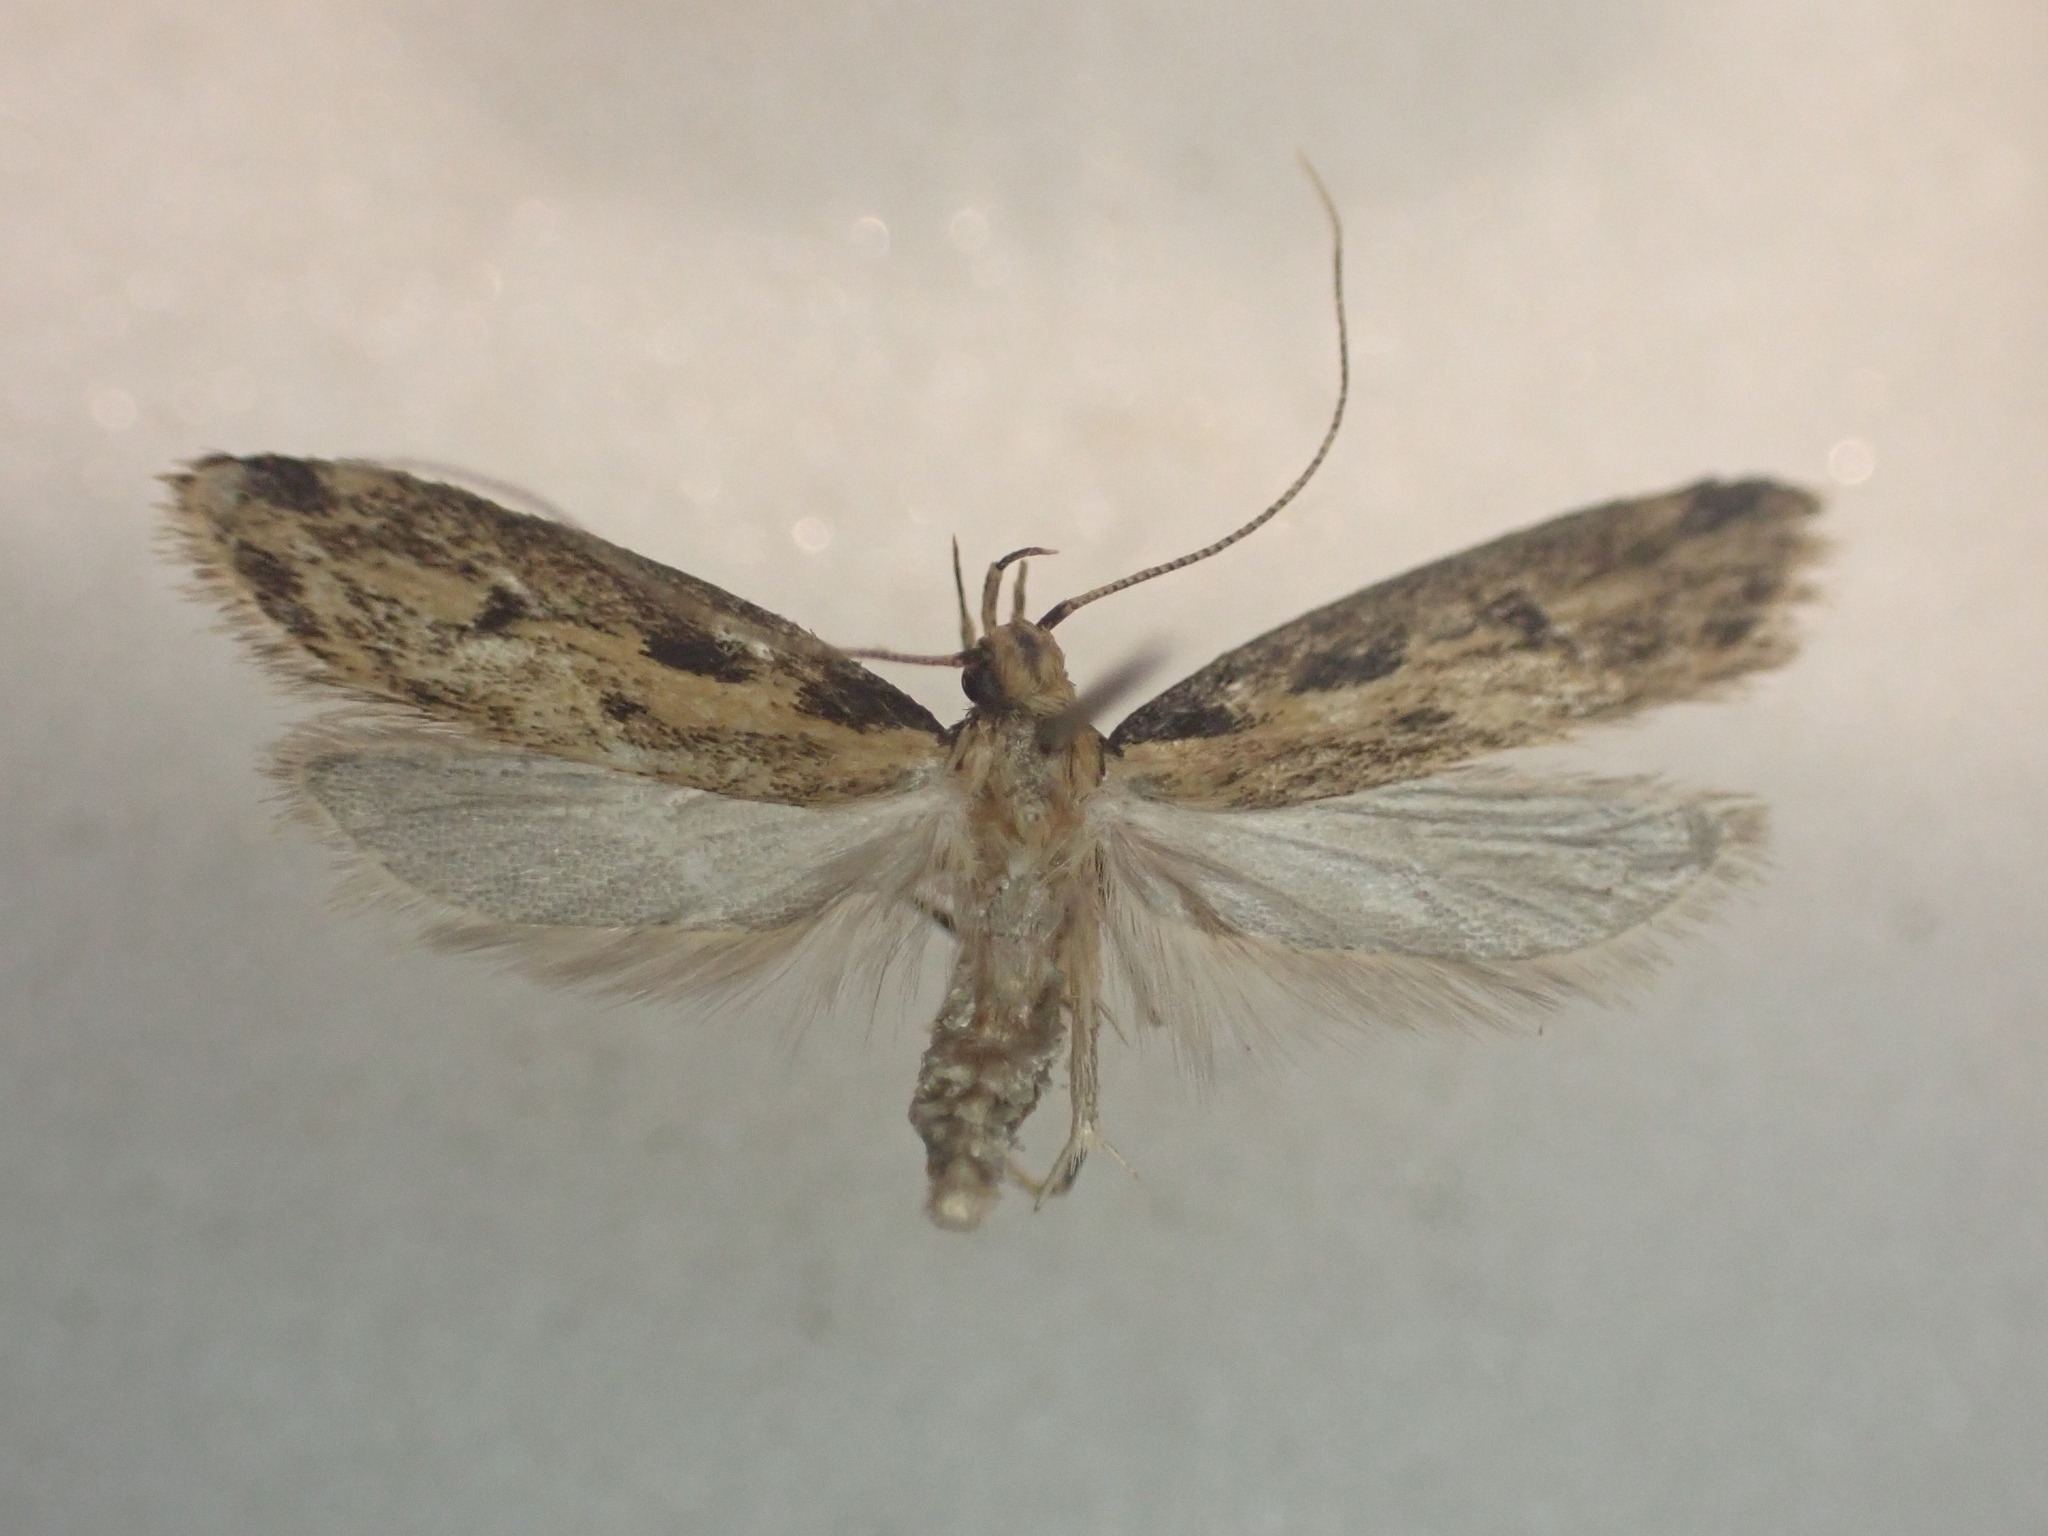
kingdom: Animalia
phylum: Arthropoda
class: Insecta
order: Lepidoptera
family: Oecophoridae
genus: Gymnobathra
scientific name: Gymnobathra
